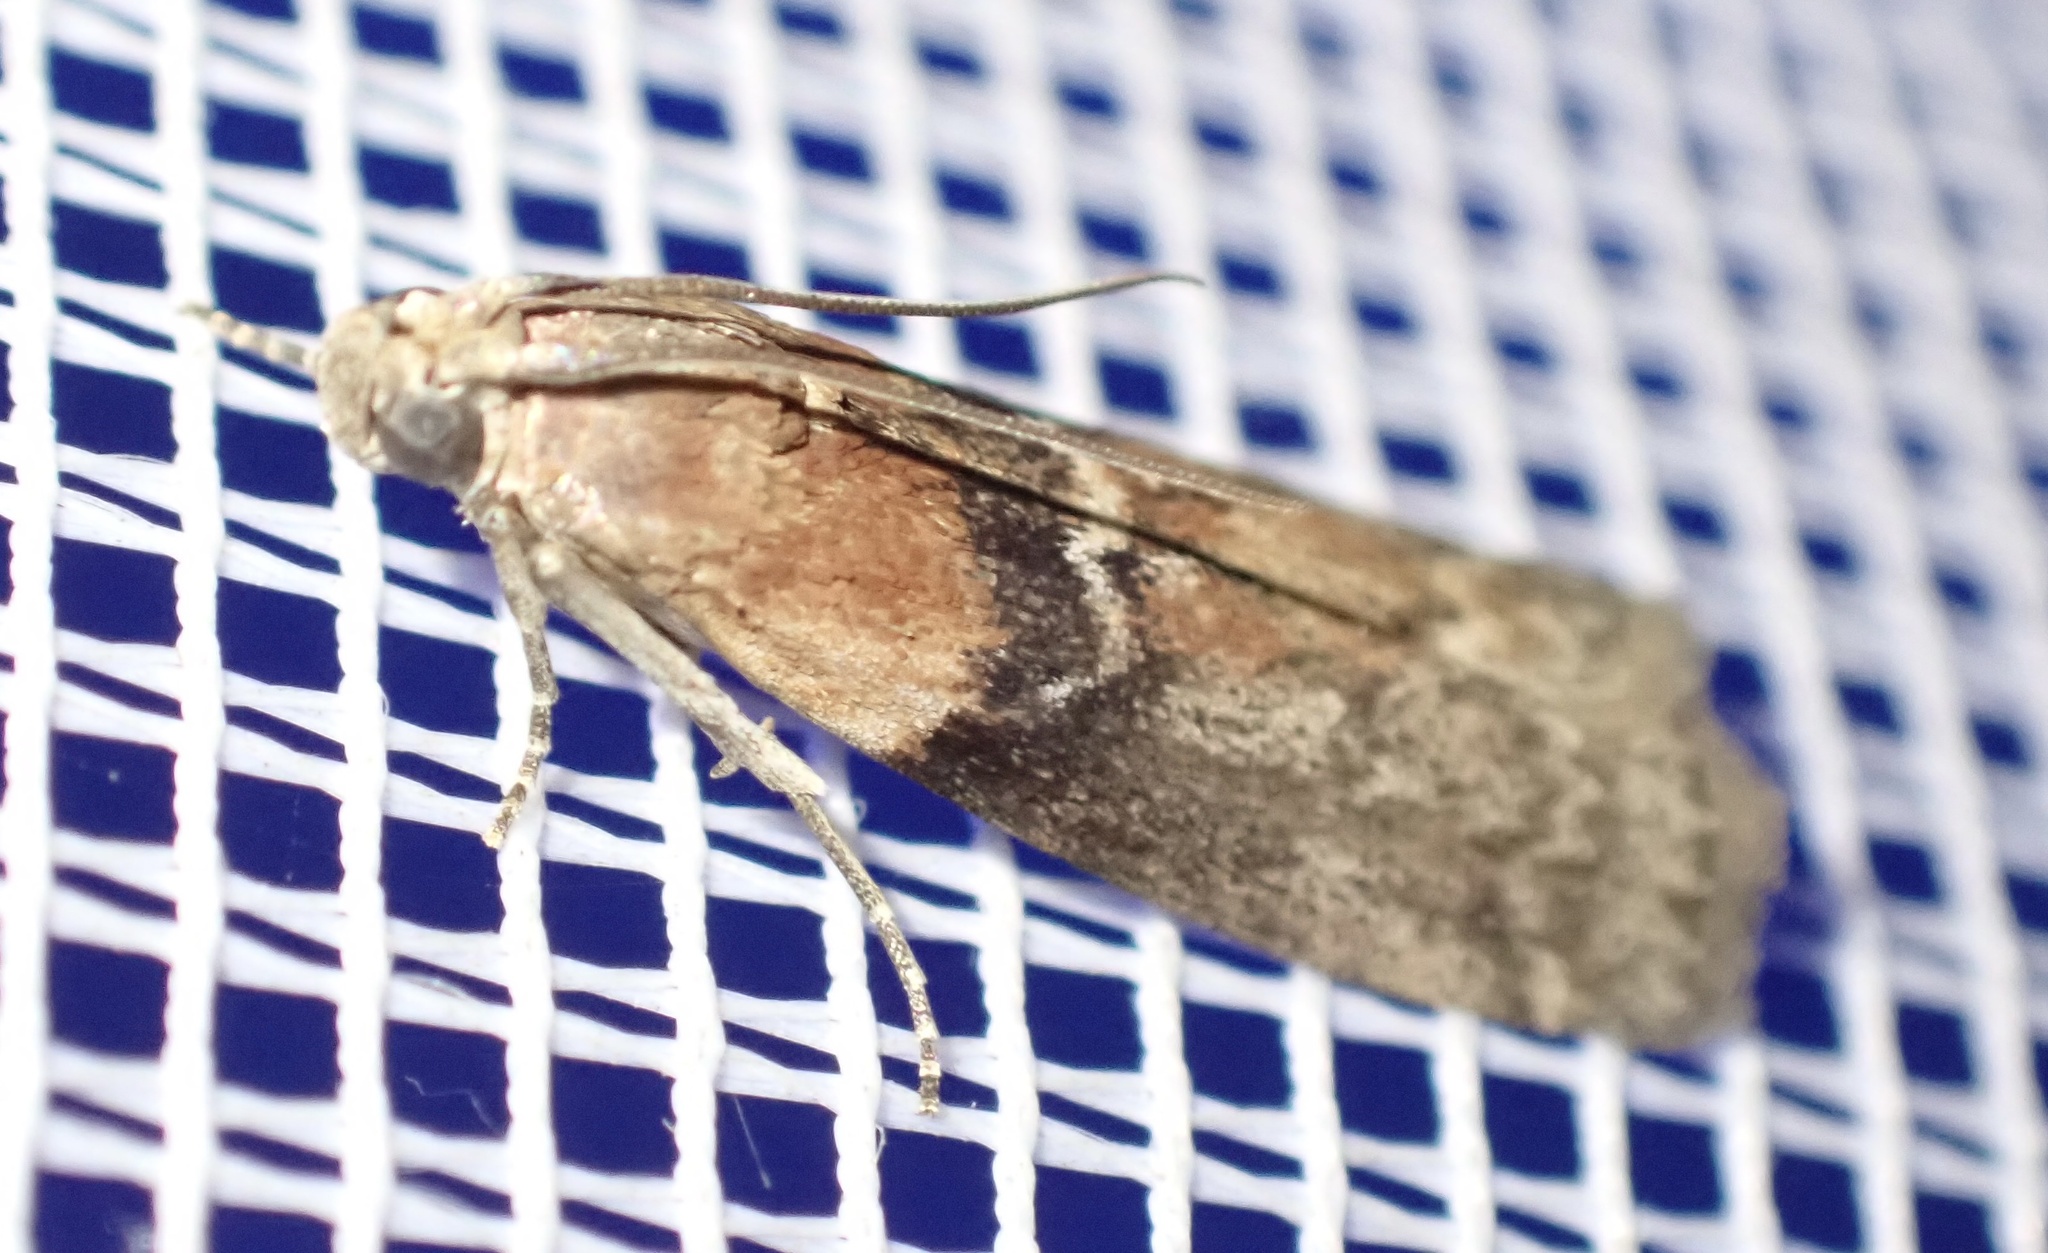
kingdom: Animalia
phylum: Arthropoda
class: Insecta
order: Lepidoptera
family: Pyralidae
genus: Sciota
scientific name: Sciota adelphella
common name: Willow knot-horn
